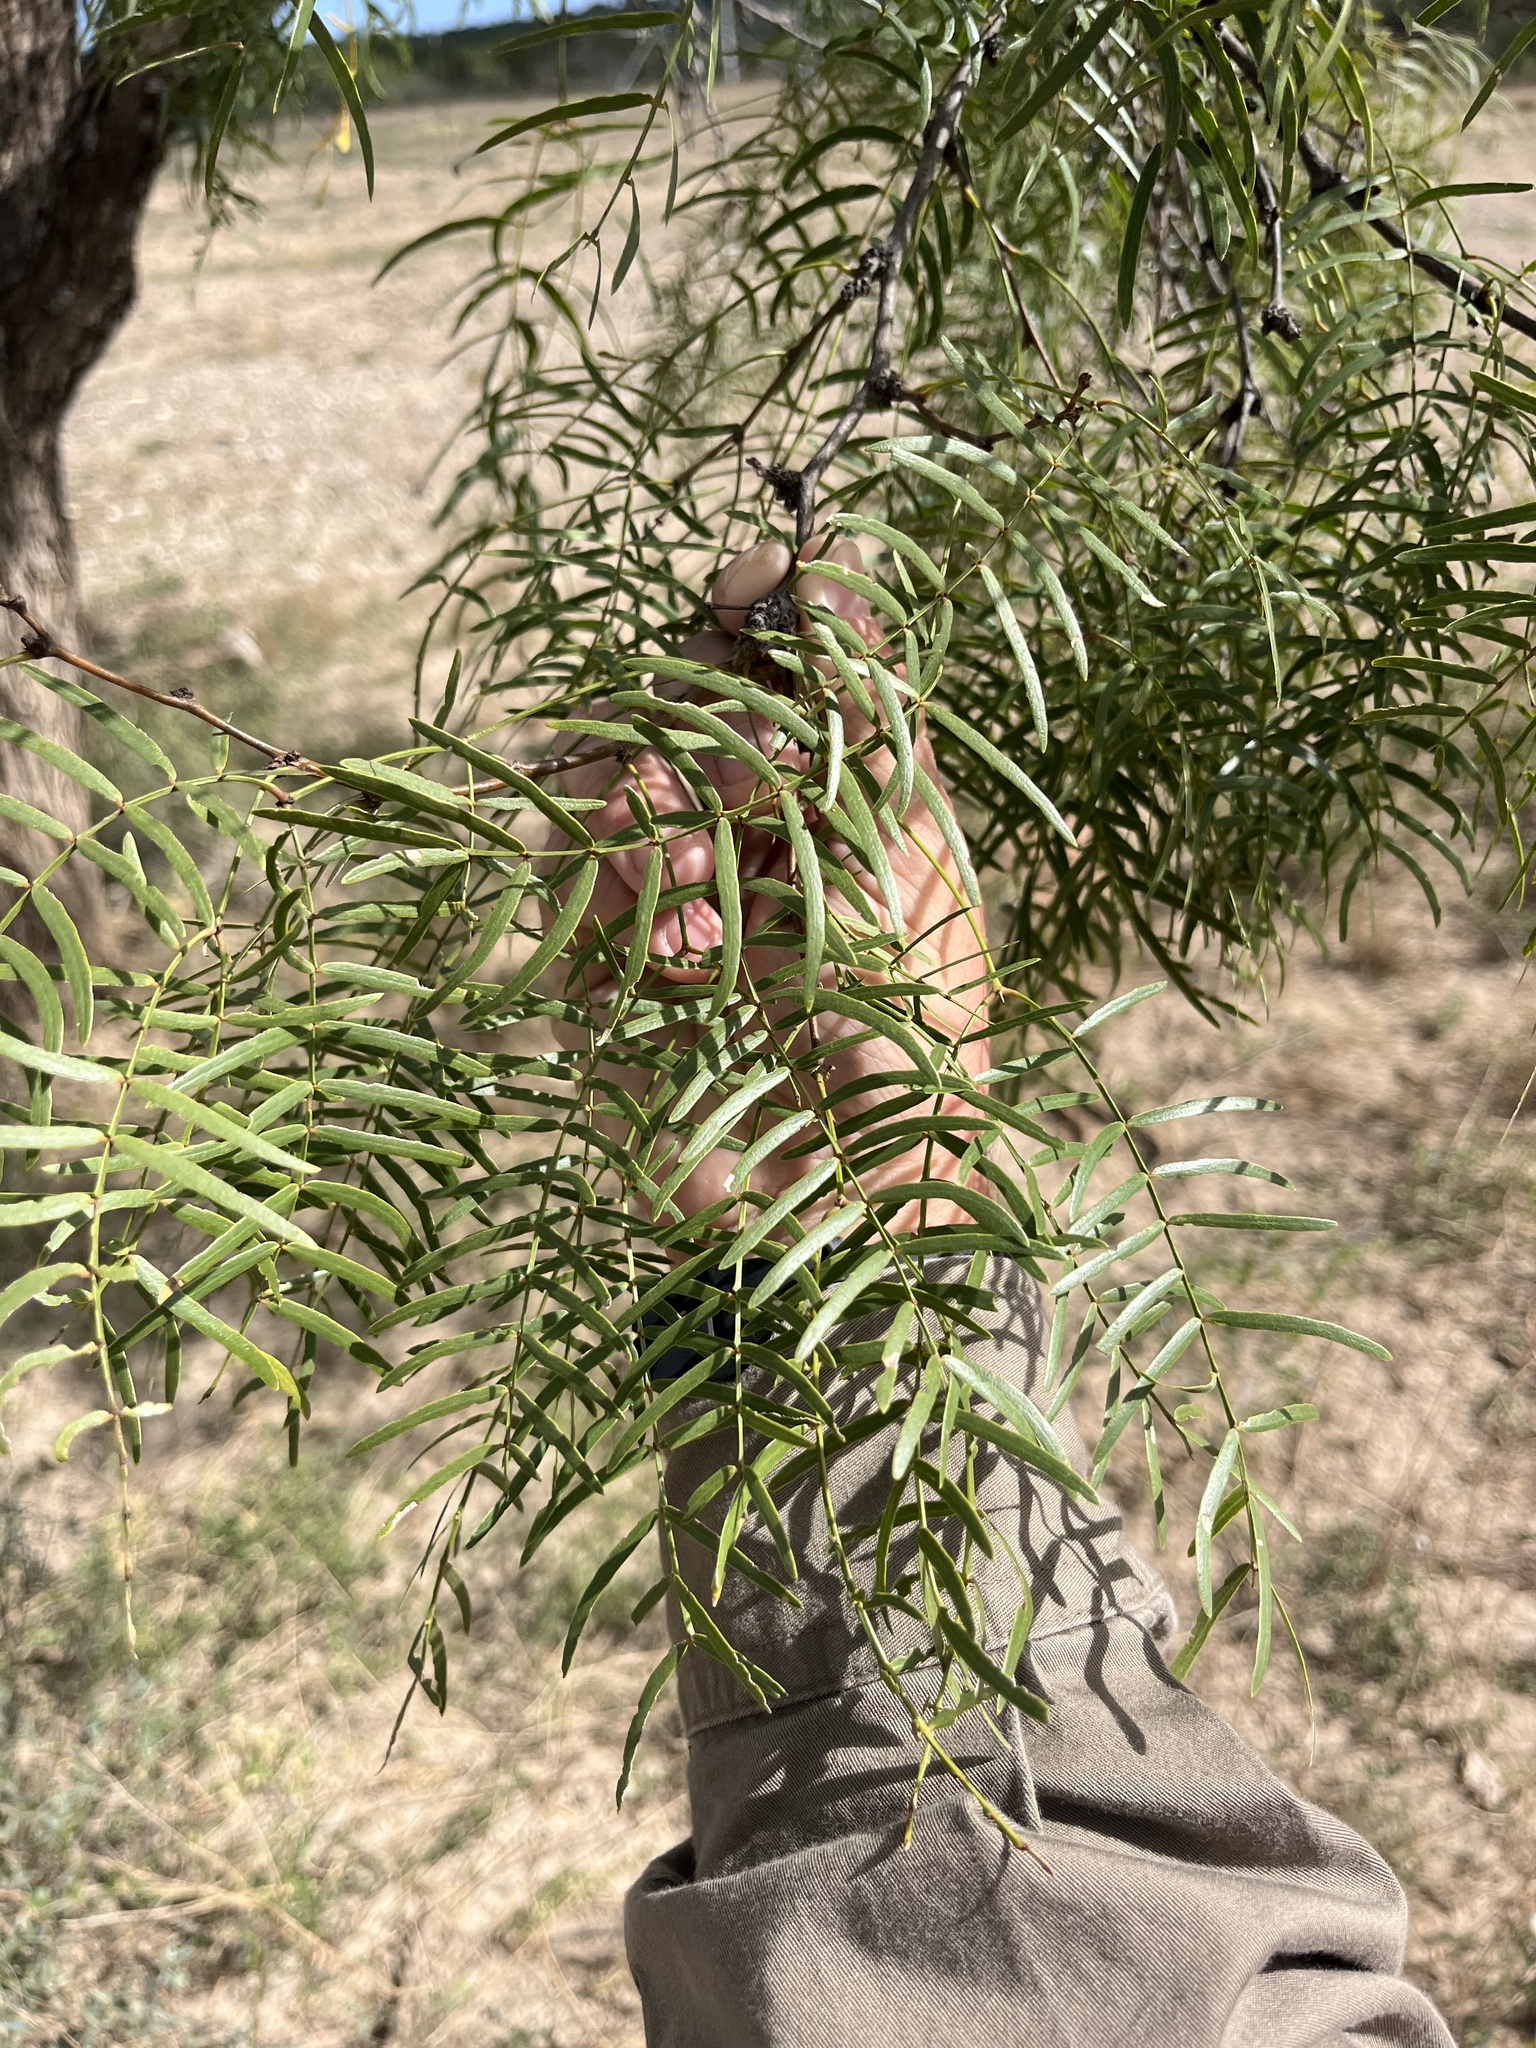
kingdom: Plantae
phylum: Tracheophyta
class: Magnoliopsida
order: Fabales
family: Fabaceae
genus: Prosopis
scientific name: Prosopis glandulosa
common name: Honey mesquite
